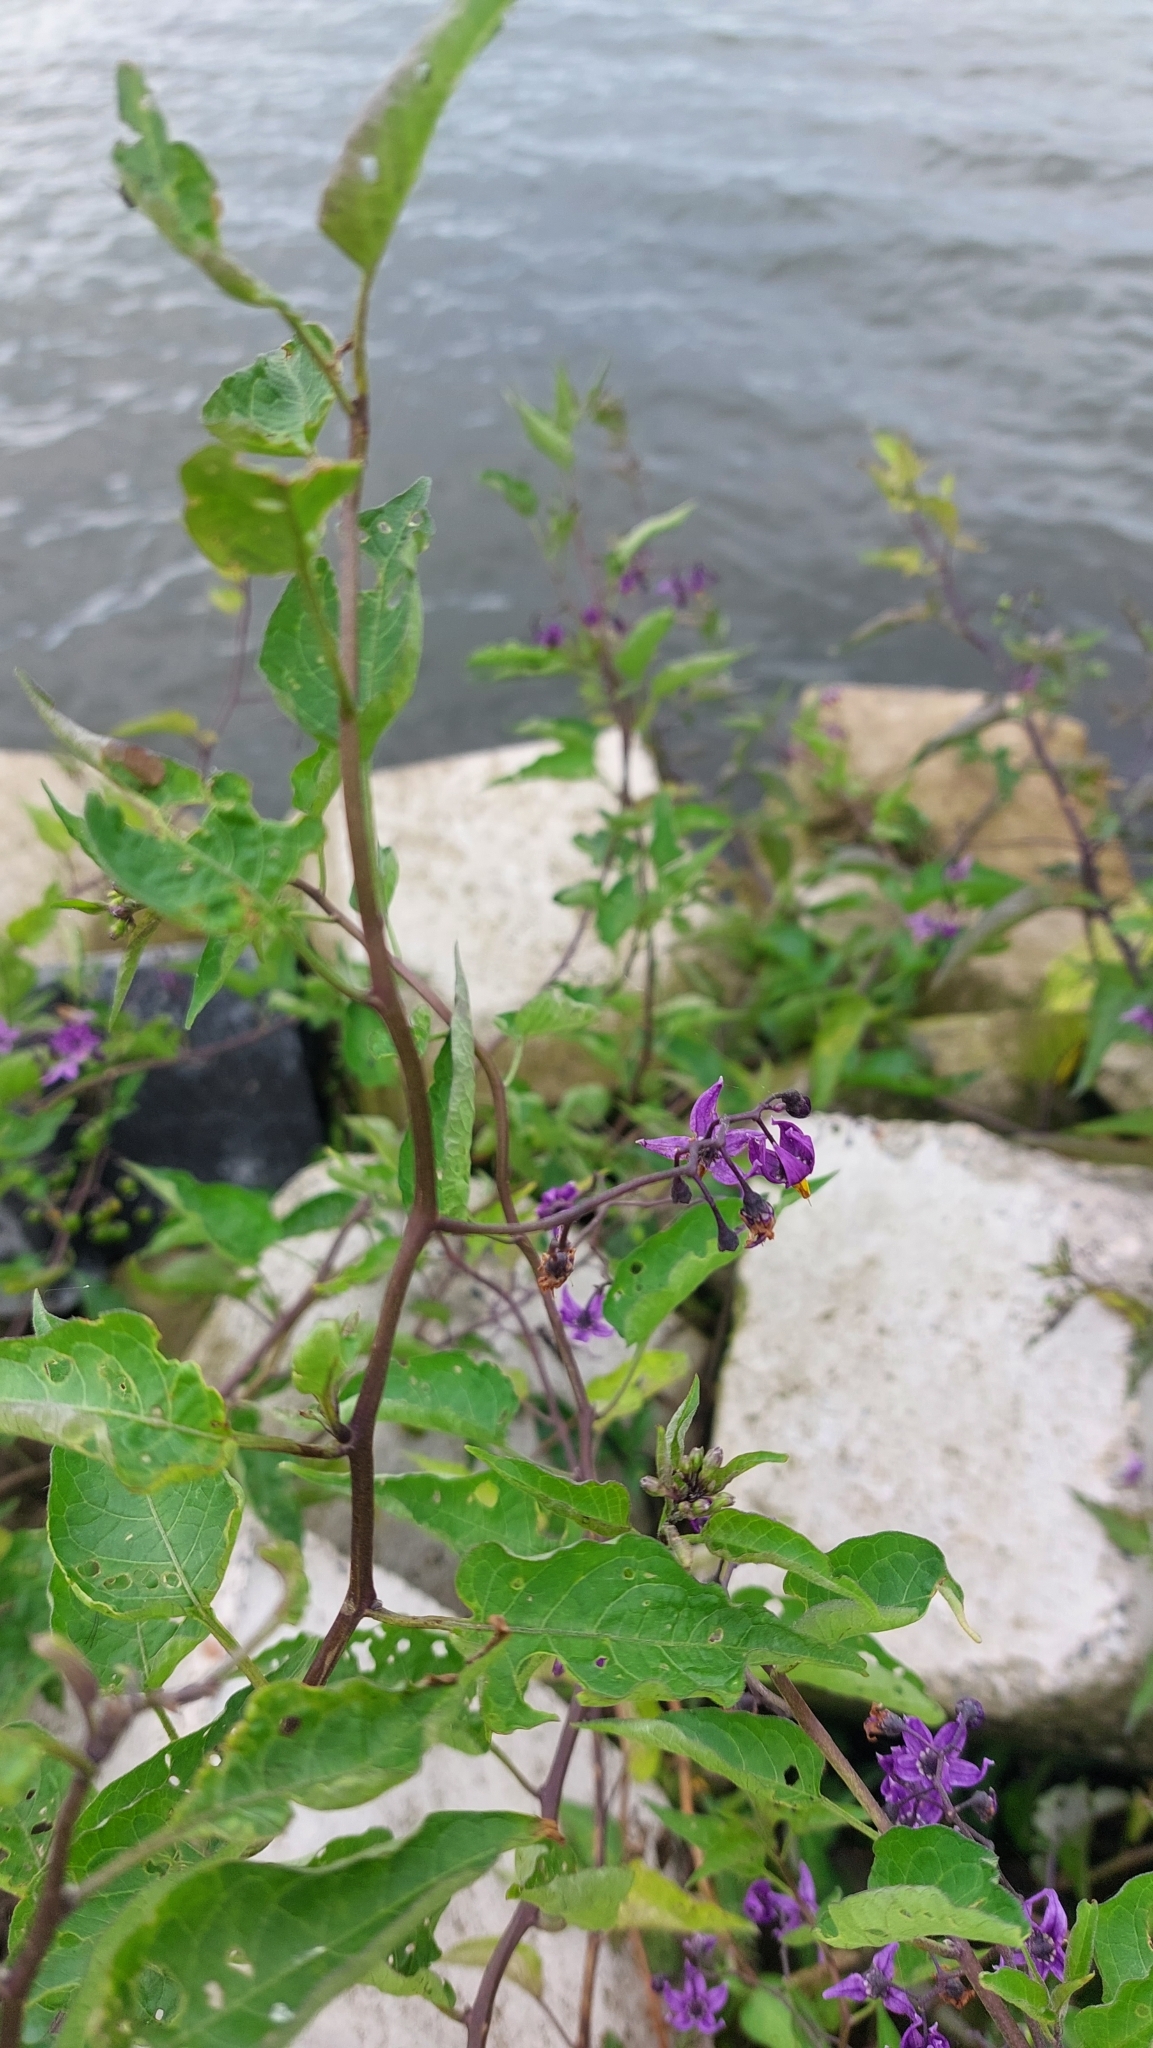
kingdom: Plantae
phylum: Tracheophyta
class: Magnoliopsida
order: Solanales
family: Solanaceae
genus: Solanum
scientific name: Solanum dulcamara
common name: Climbing nightshade
